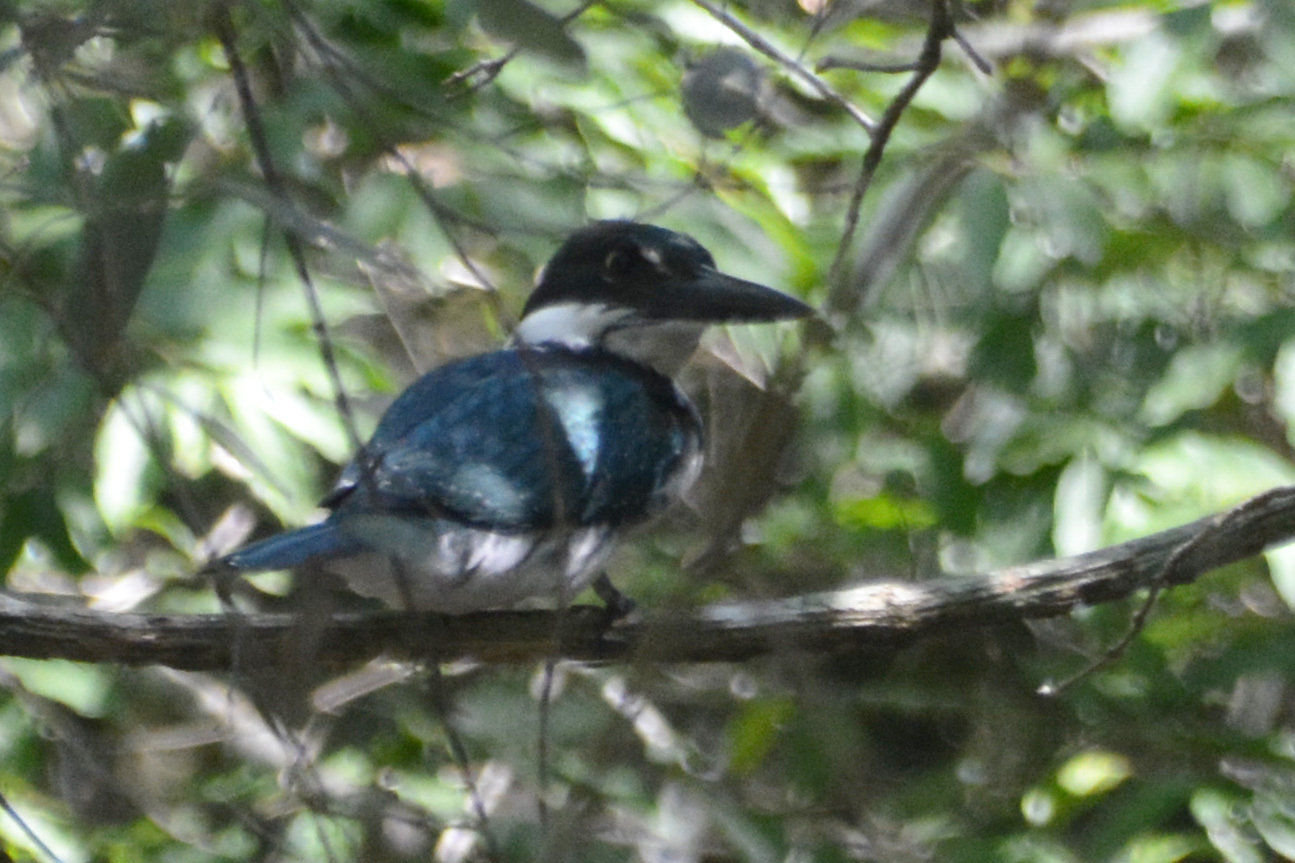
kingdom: Animalia
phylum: Chordata
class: Aves
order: Coraciiformes
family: Alcedinidae
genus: Chloroceryle
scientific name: Chloroceryle amazona
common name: Amazon kingfisher
